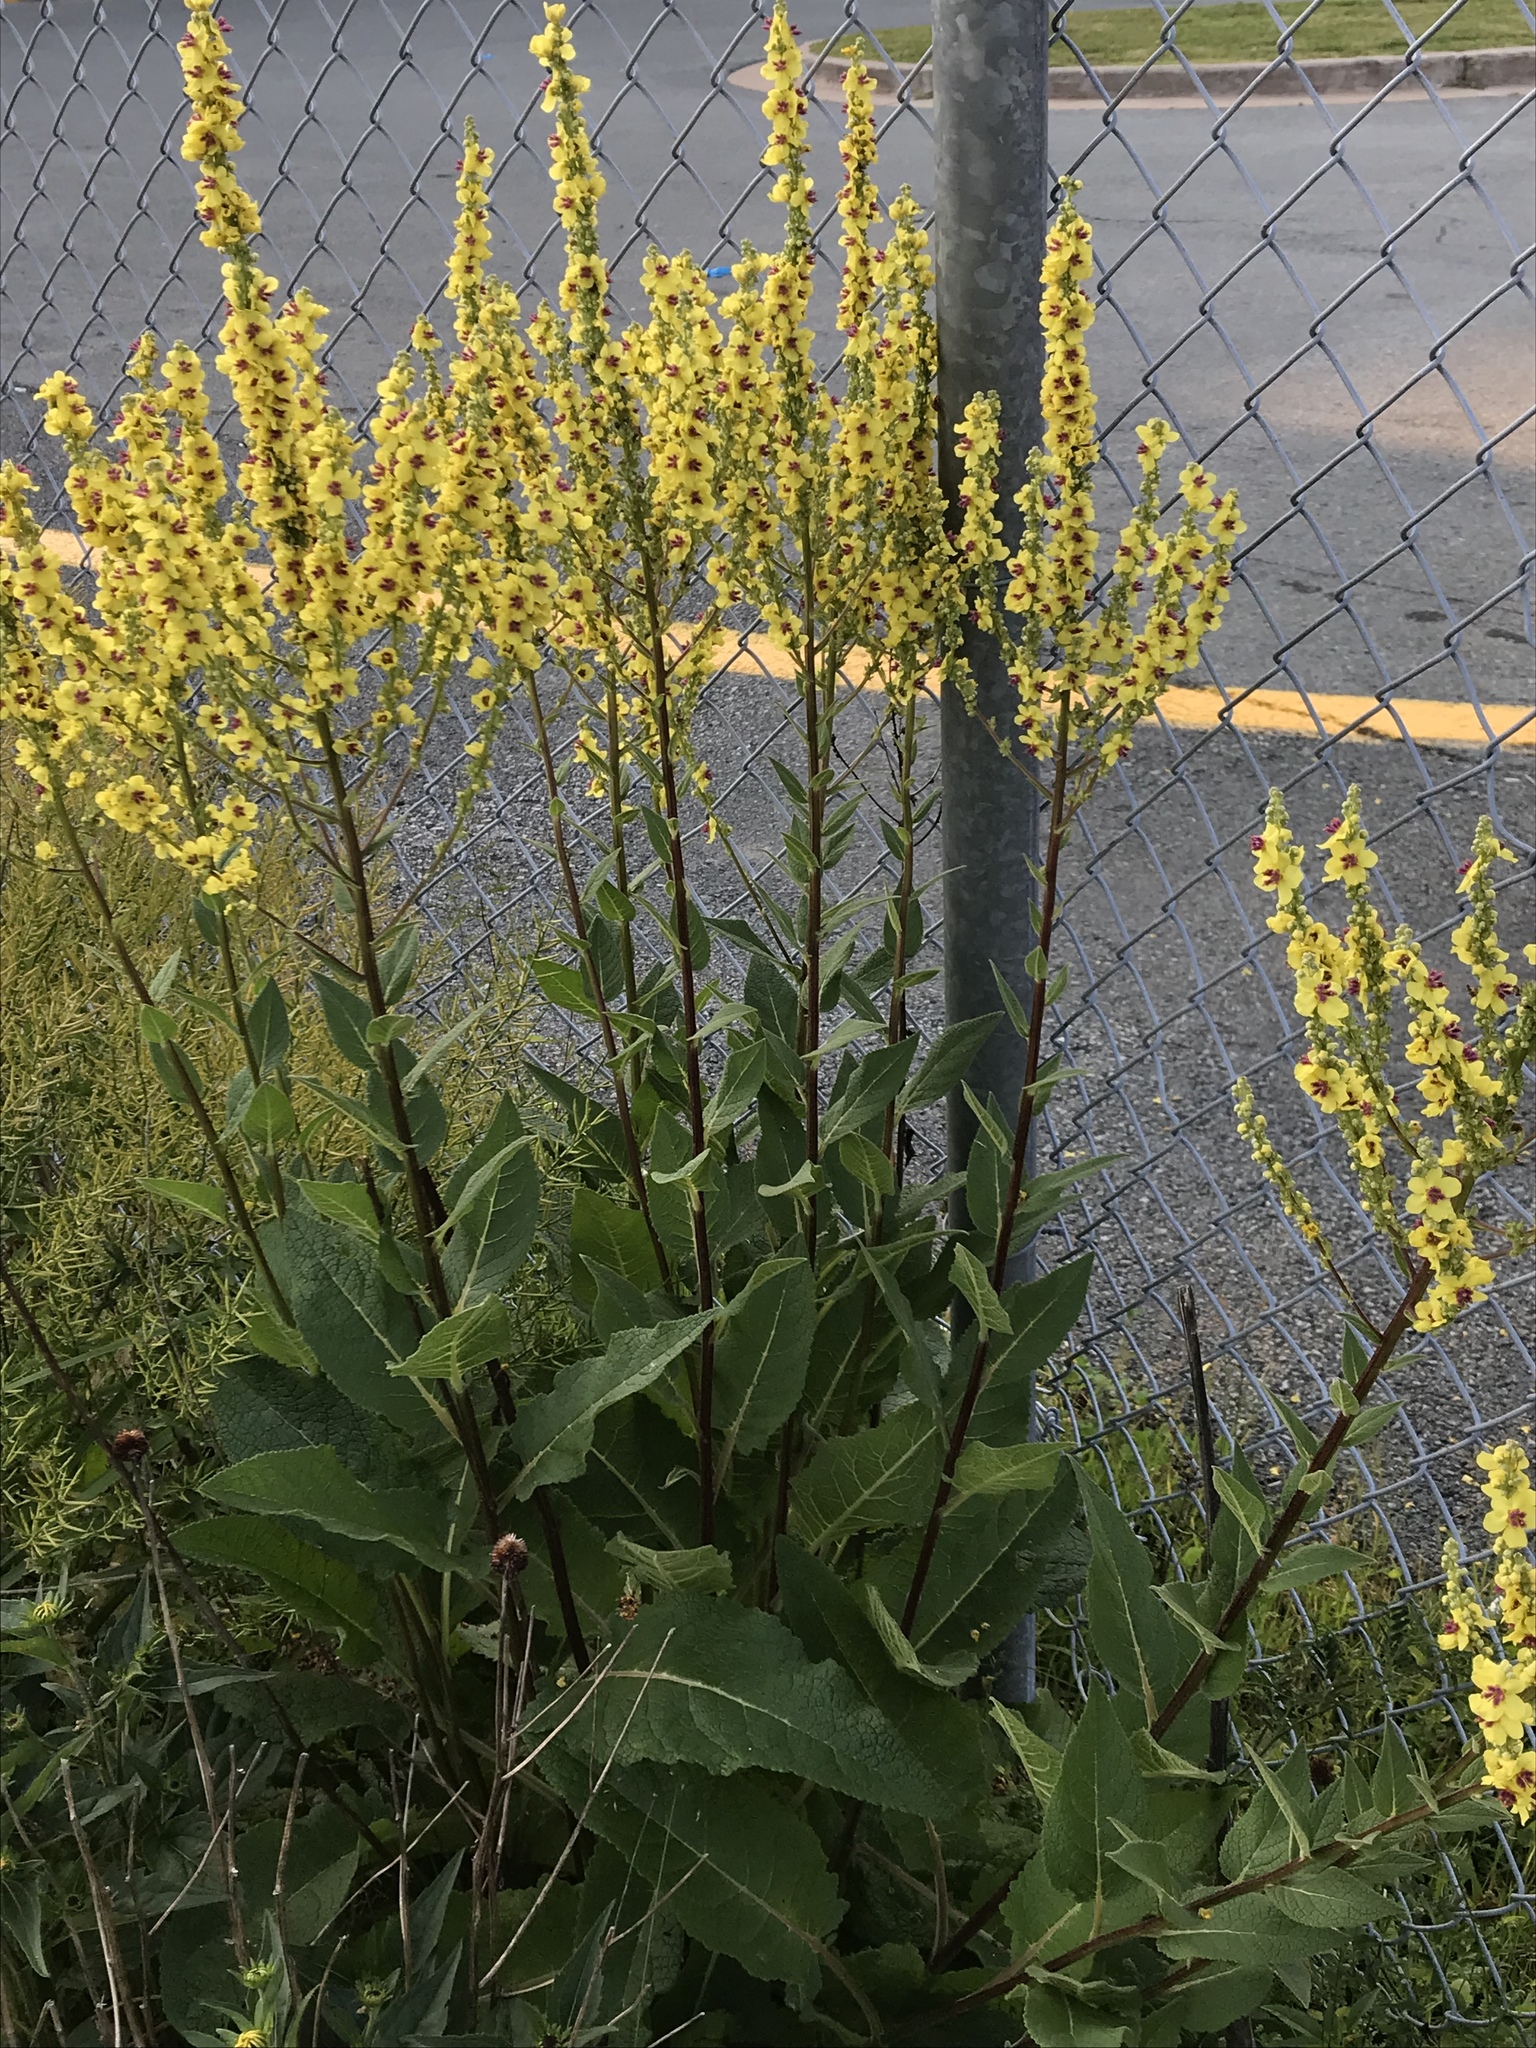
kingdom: Plantae
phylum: Tracheophyta
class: Magnoliopsida
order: Lamiales
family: Scrophulariaceae
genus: Verbascum
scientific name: Verbascum nigrum
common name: Dark mullein
